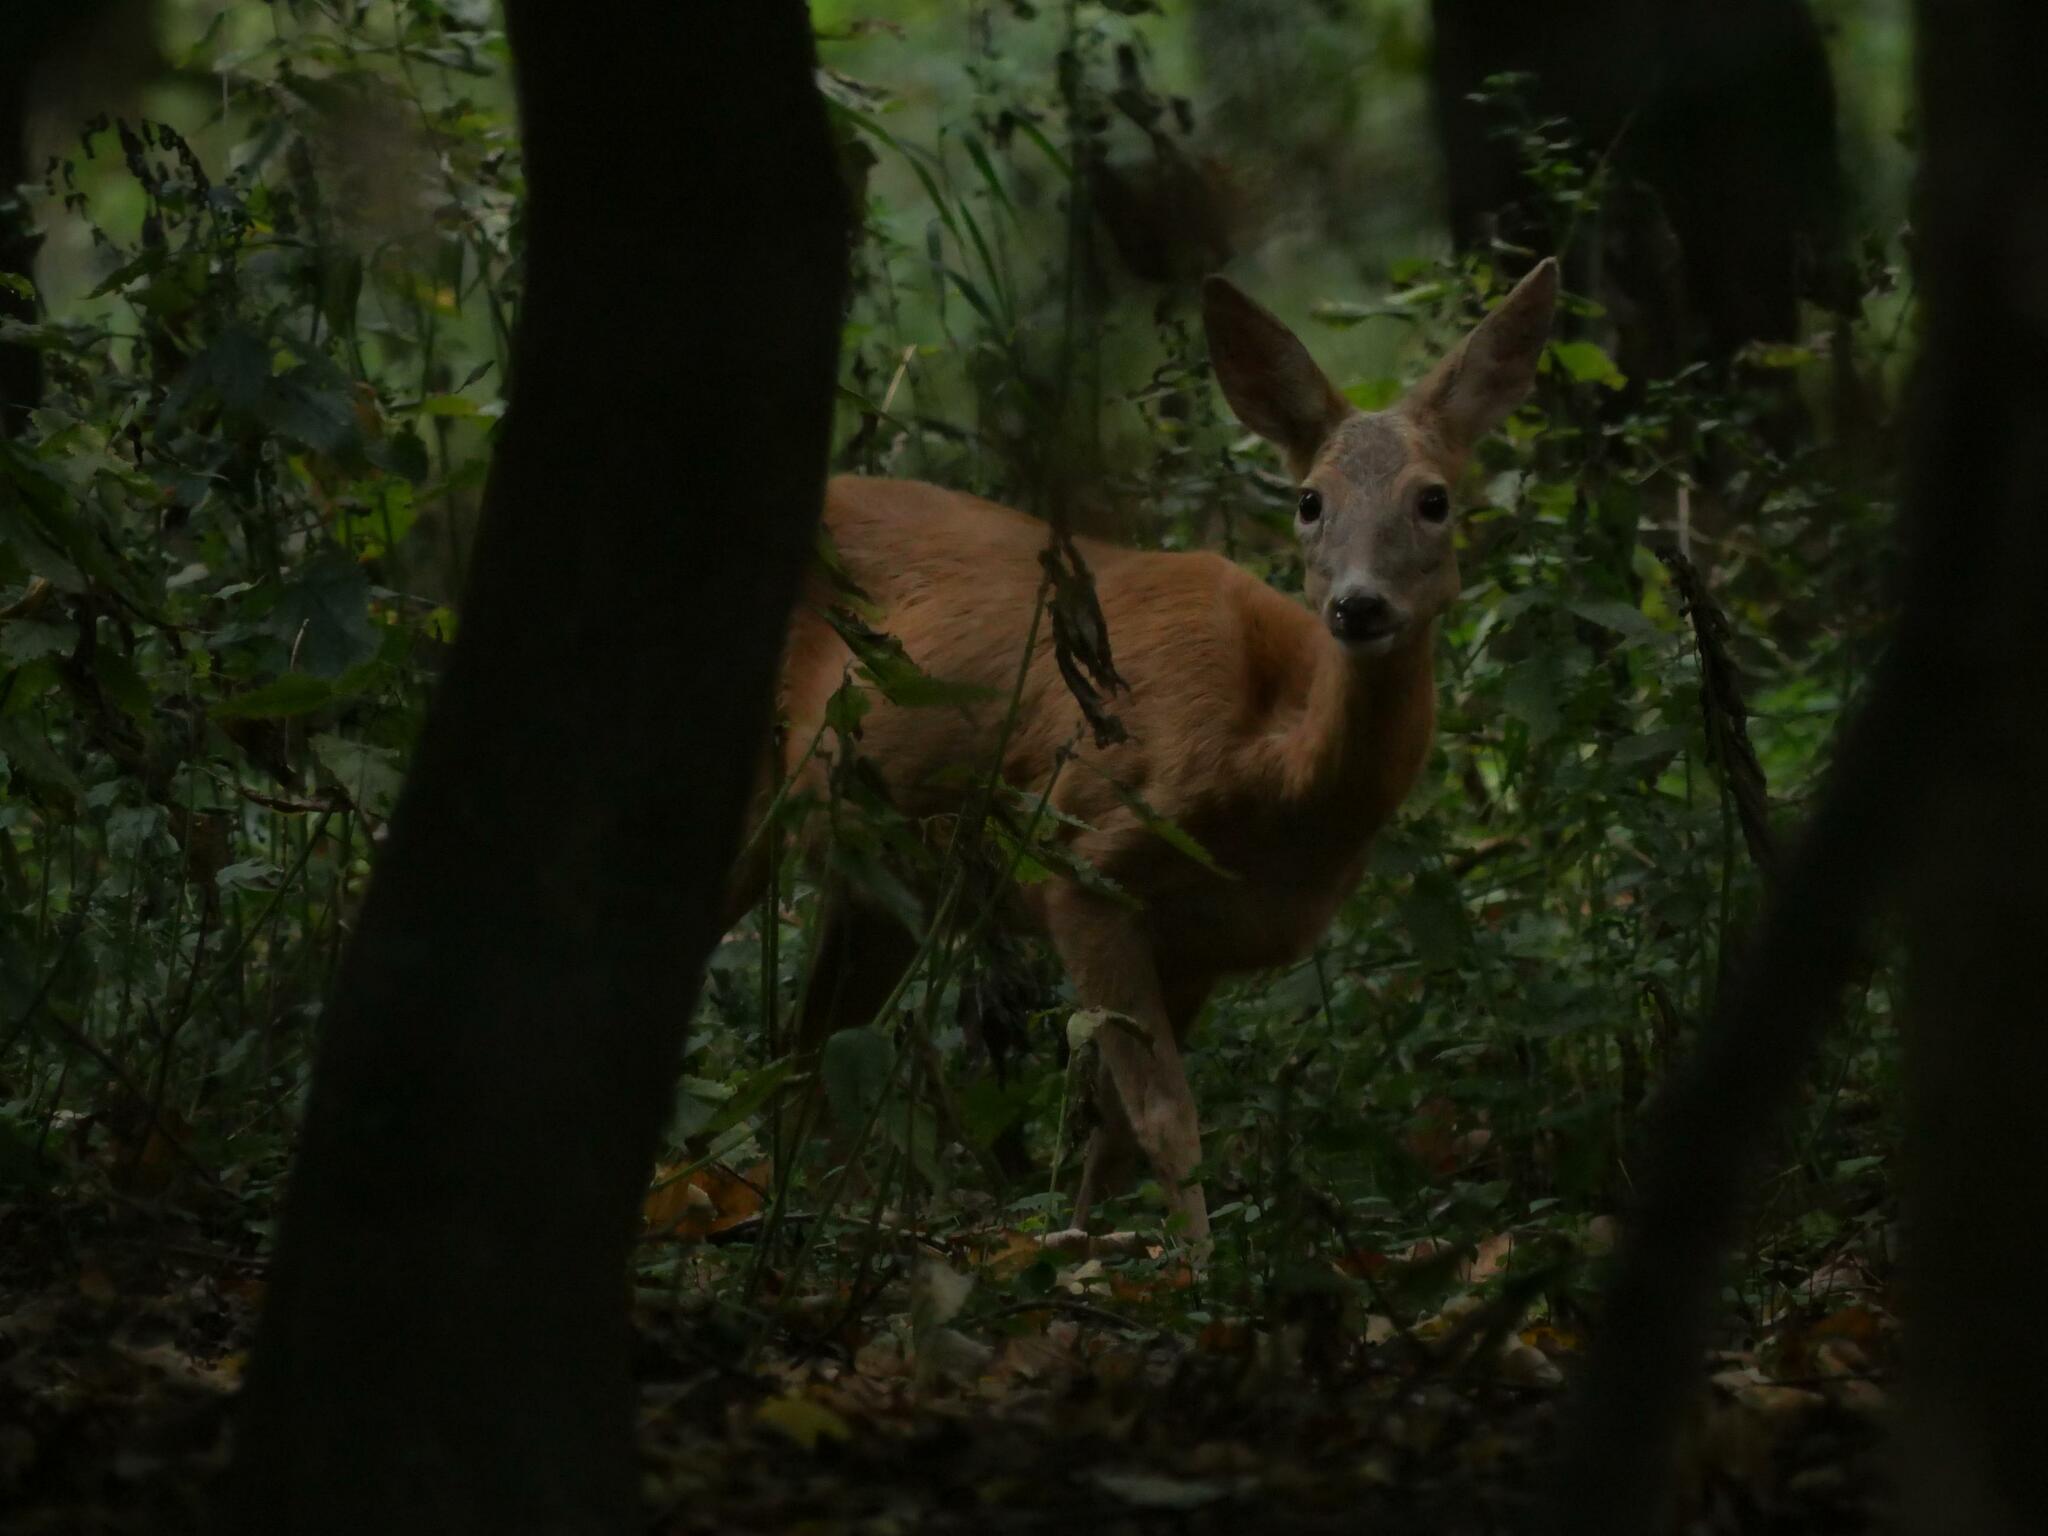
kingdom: Animalia
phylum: Chordata
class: Mammalia
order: Artiodactyla
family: Cervidae
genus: Capreolus
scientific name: Capreolus capreolus
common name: Western roe deer
